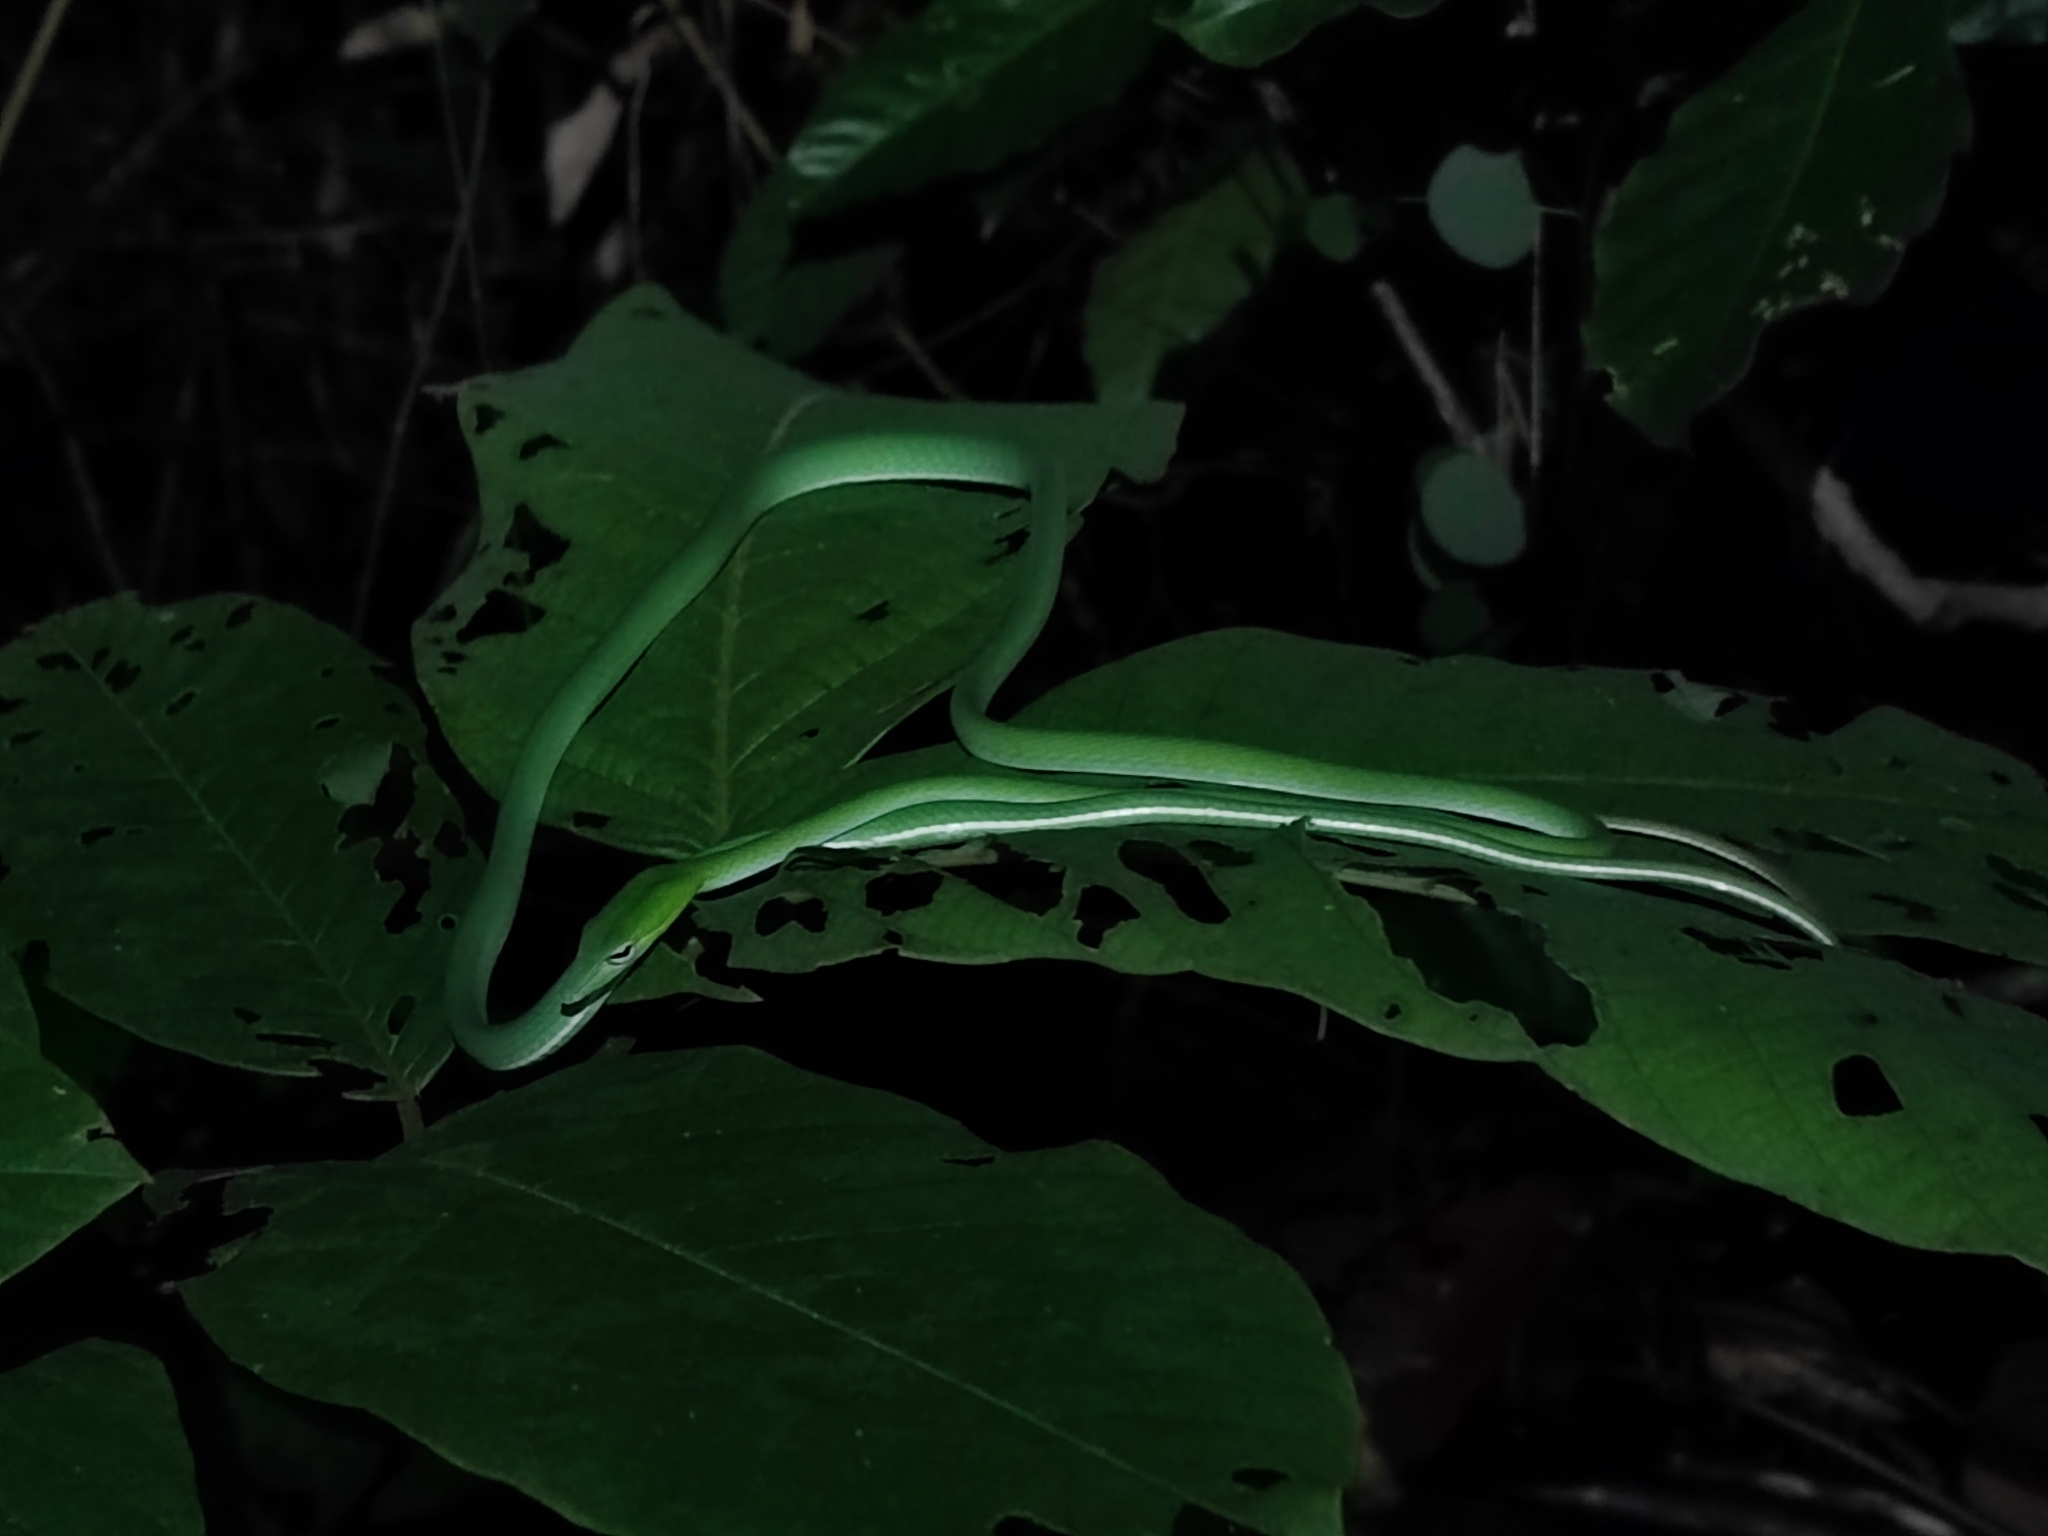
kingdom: Animalia
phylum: Chordata
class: Squamata
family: Colubridae
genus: Ahaetulla
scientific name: Ahaetulla prasina
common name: Oriental whip snake
